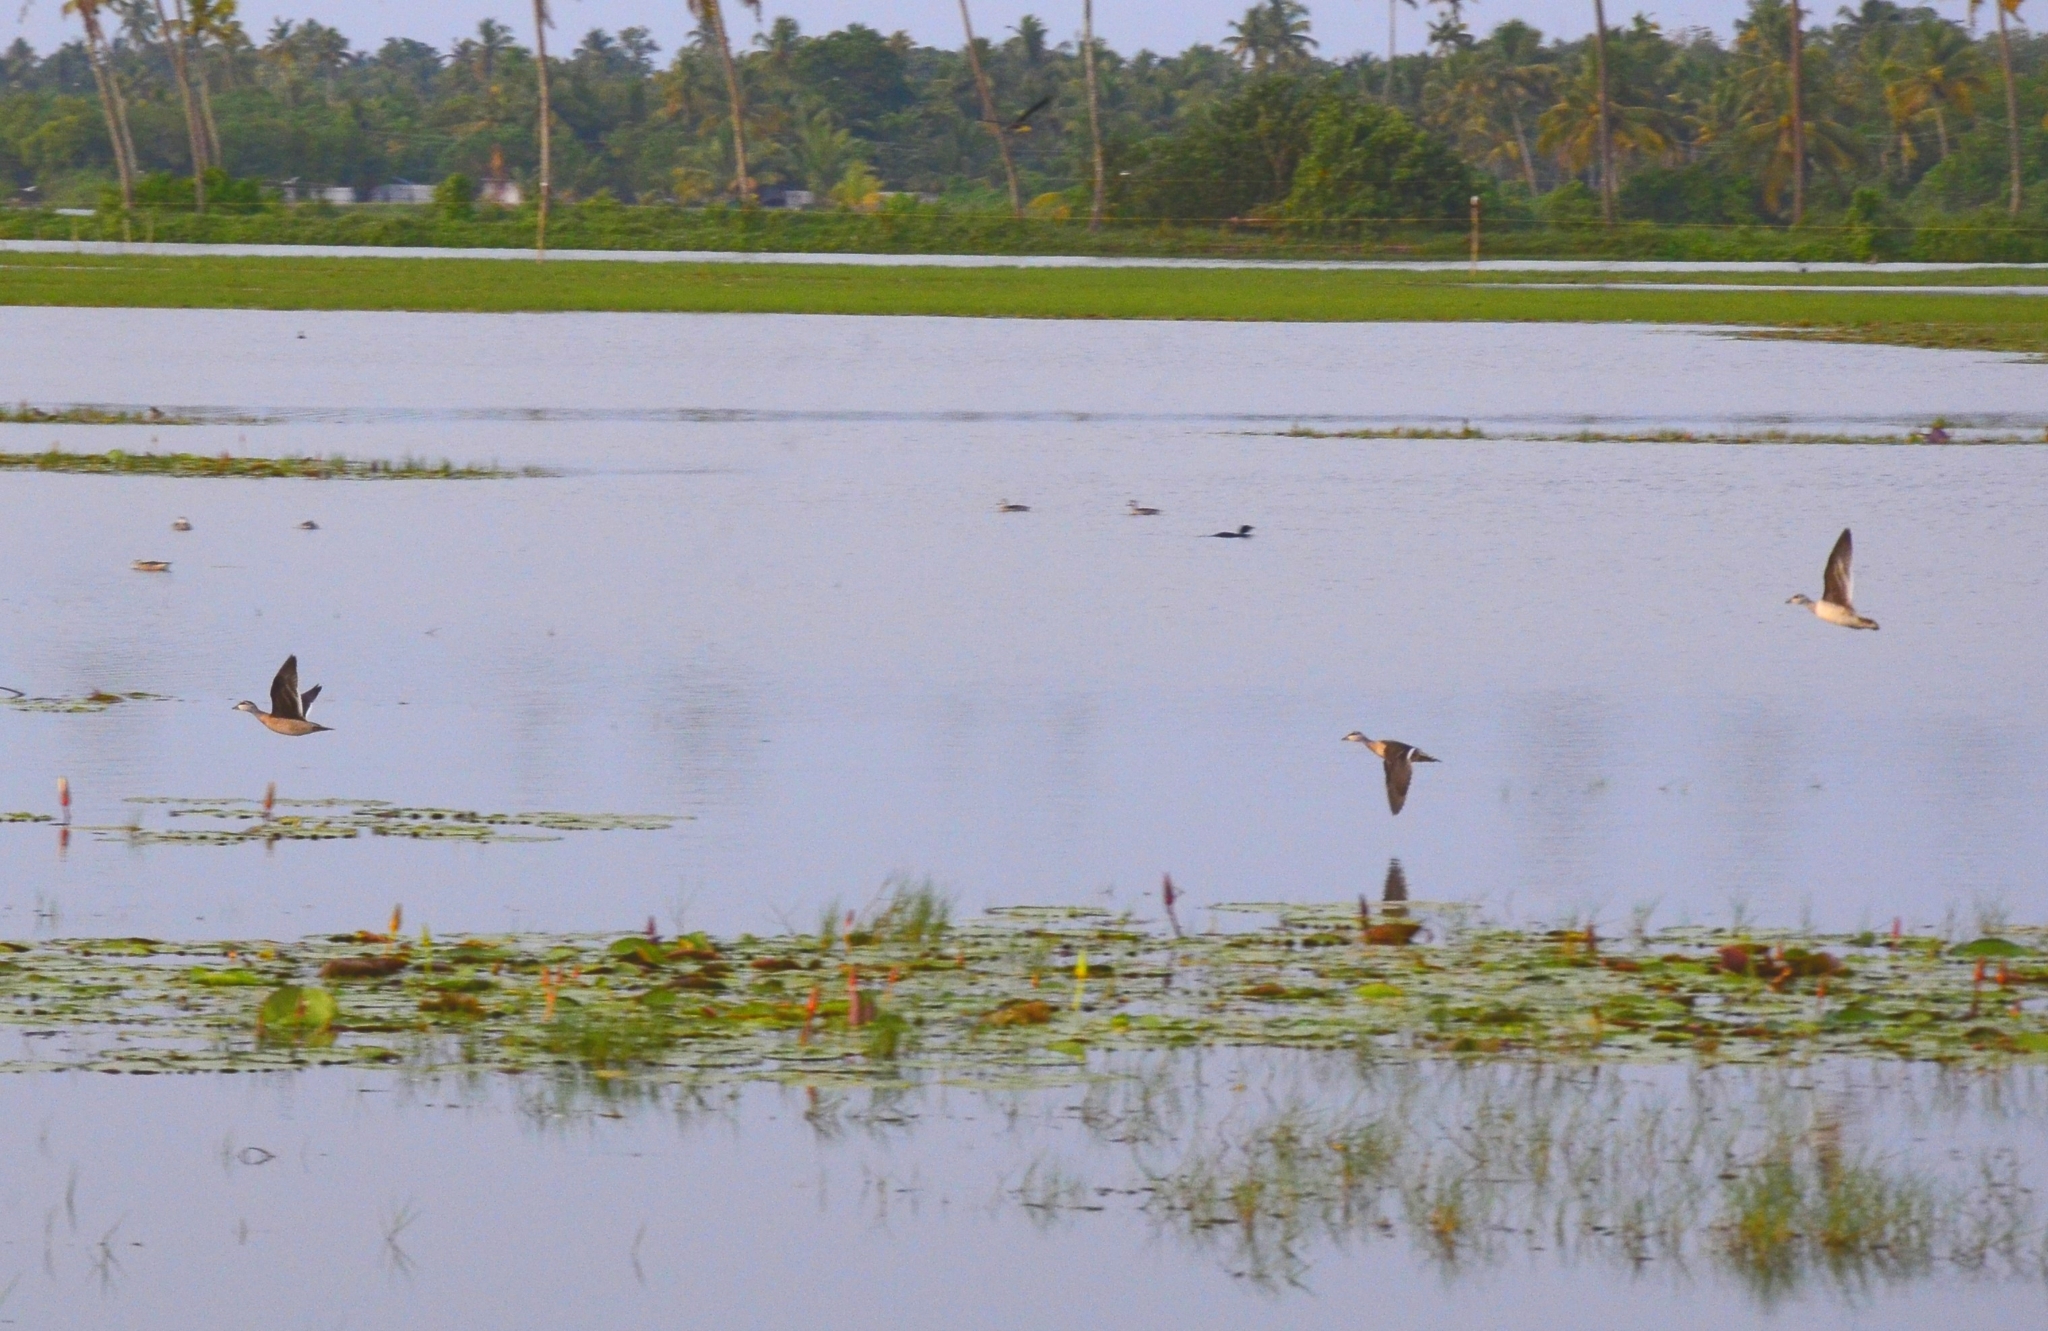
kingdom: Animalia
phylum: Chordata
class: Aves
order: Anseriformes
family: Anatidae
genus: Nettapus
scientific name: Nettapus coromandelianus
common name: Cotton pygmy-goose
